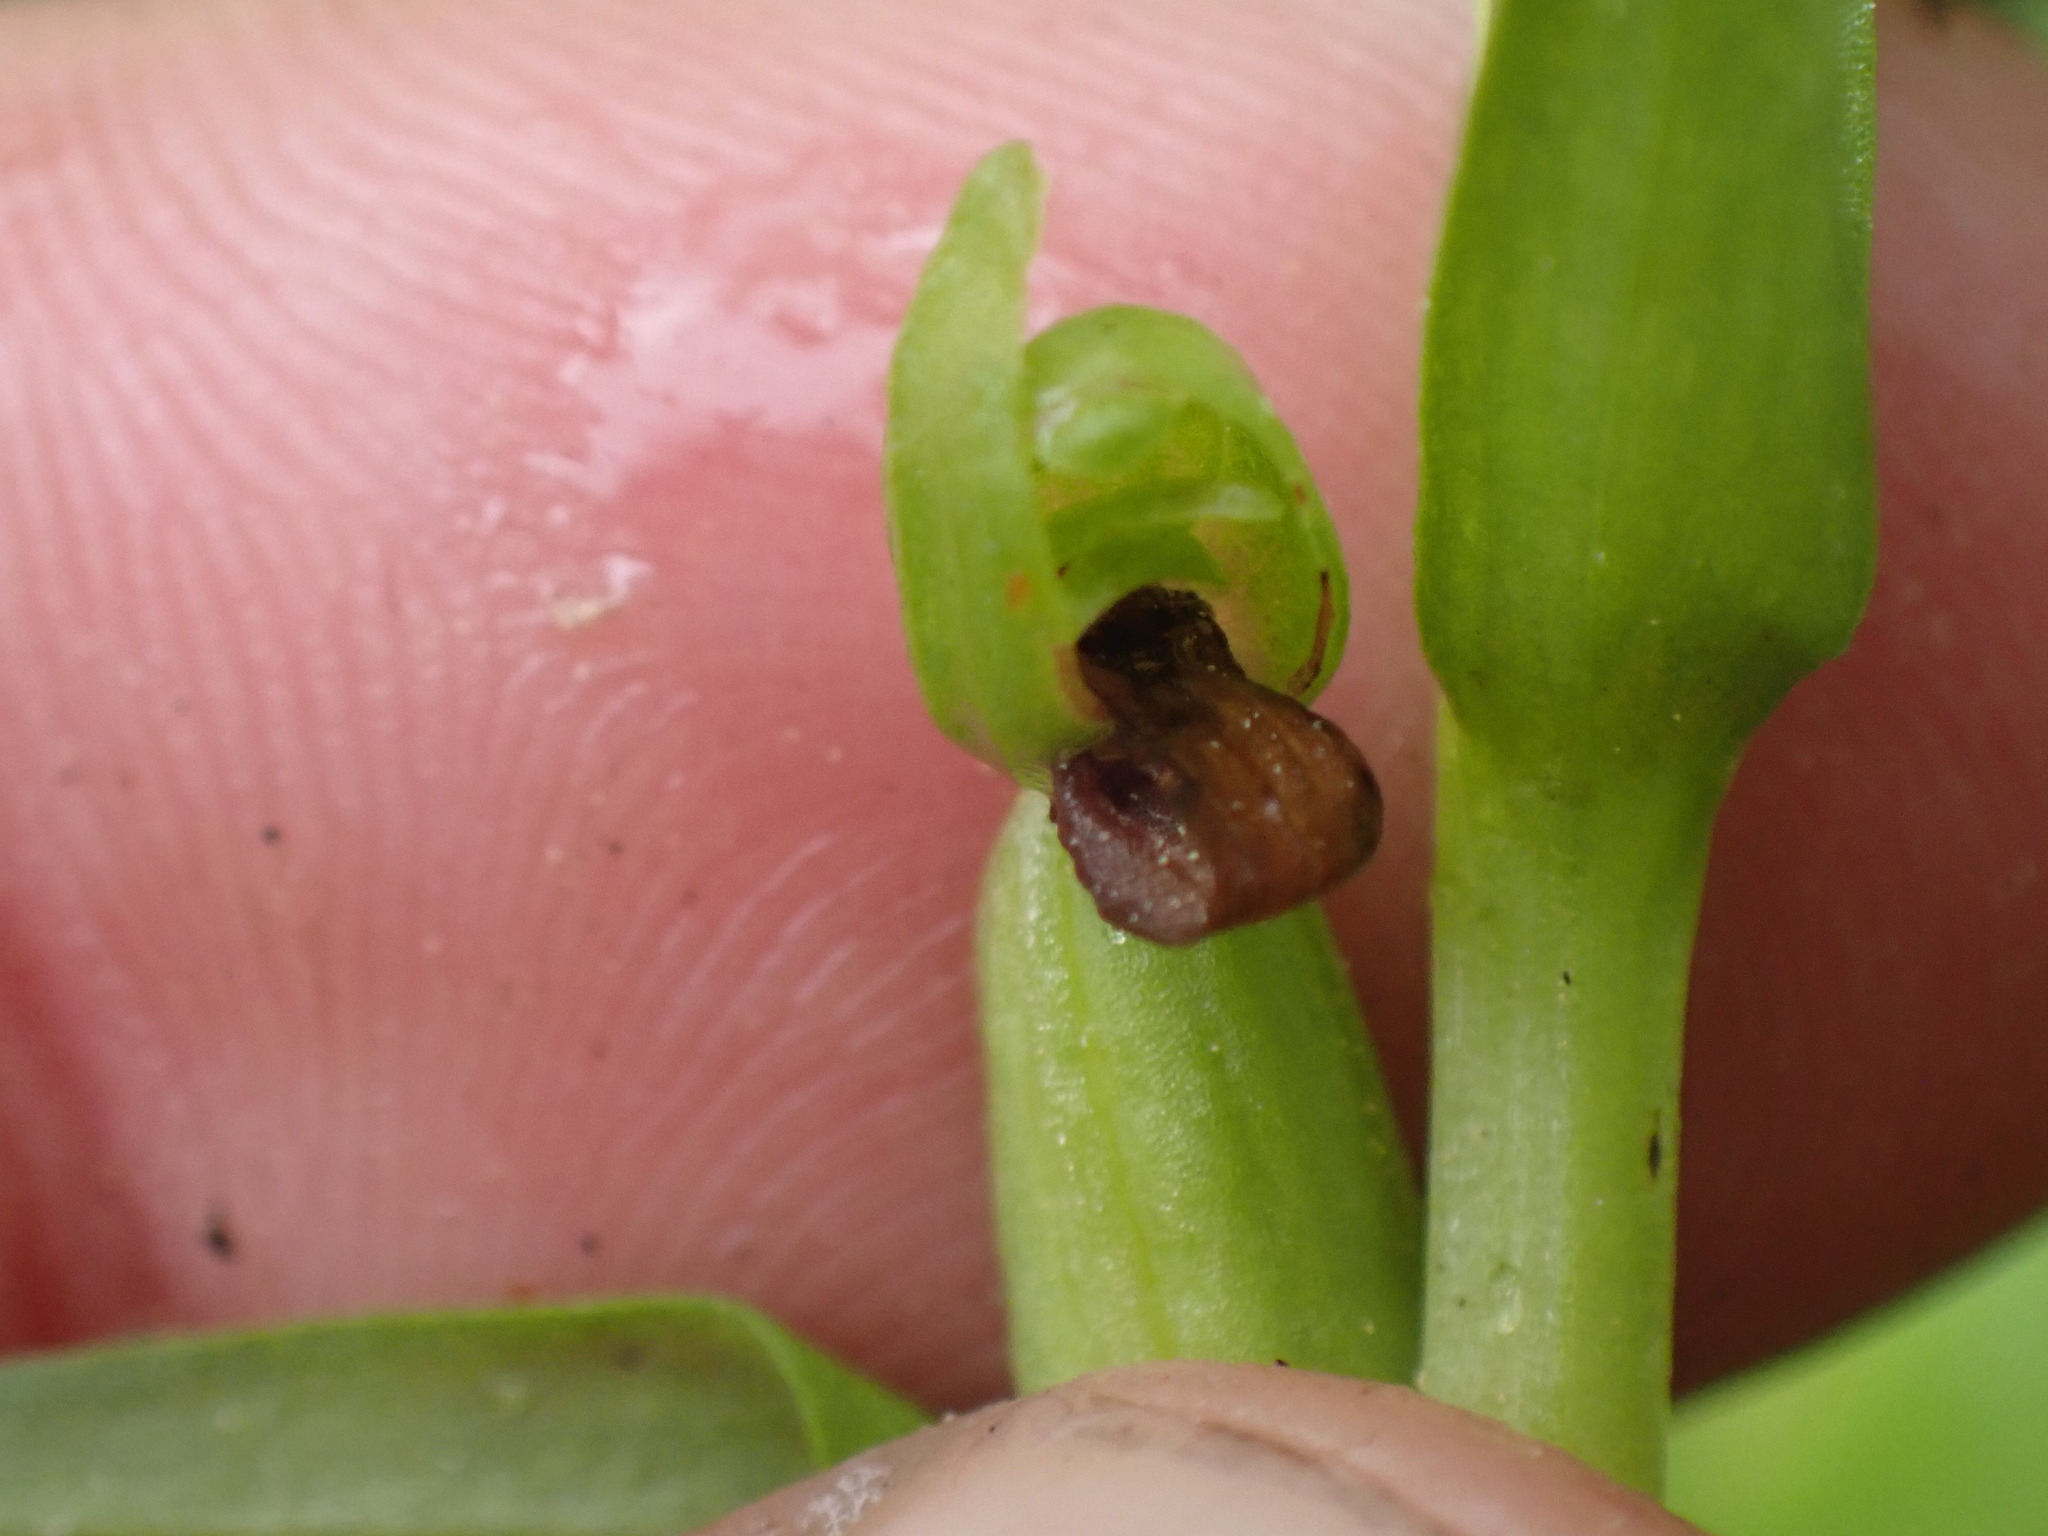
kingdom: Plantae
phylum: Tracheophyta
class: Liliopsida
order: Asparagales
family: Orchidaceae
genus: Dactylorhiza
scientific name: Dactylorhiza viridis
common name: Longbract frog orchid
